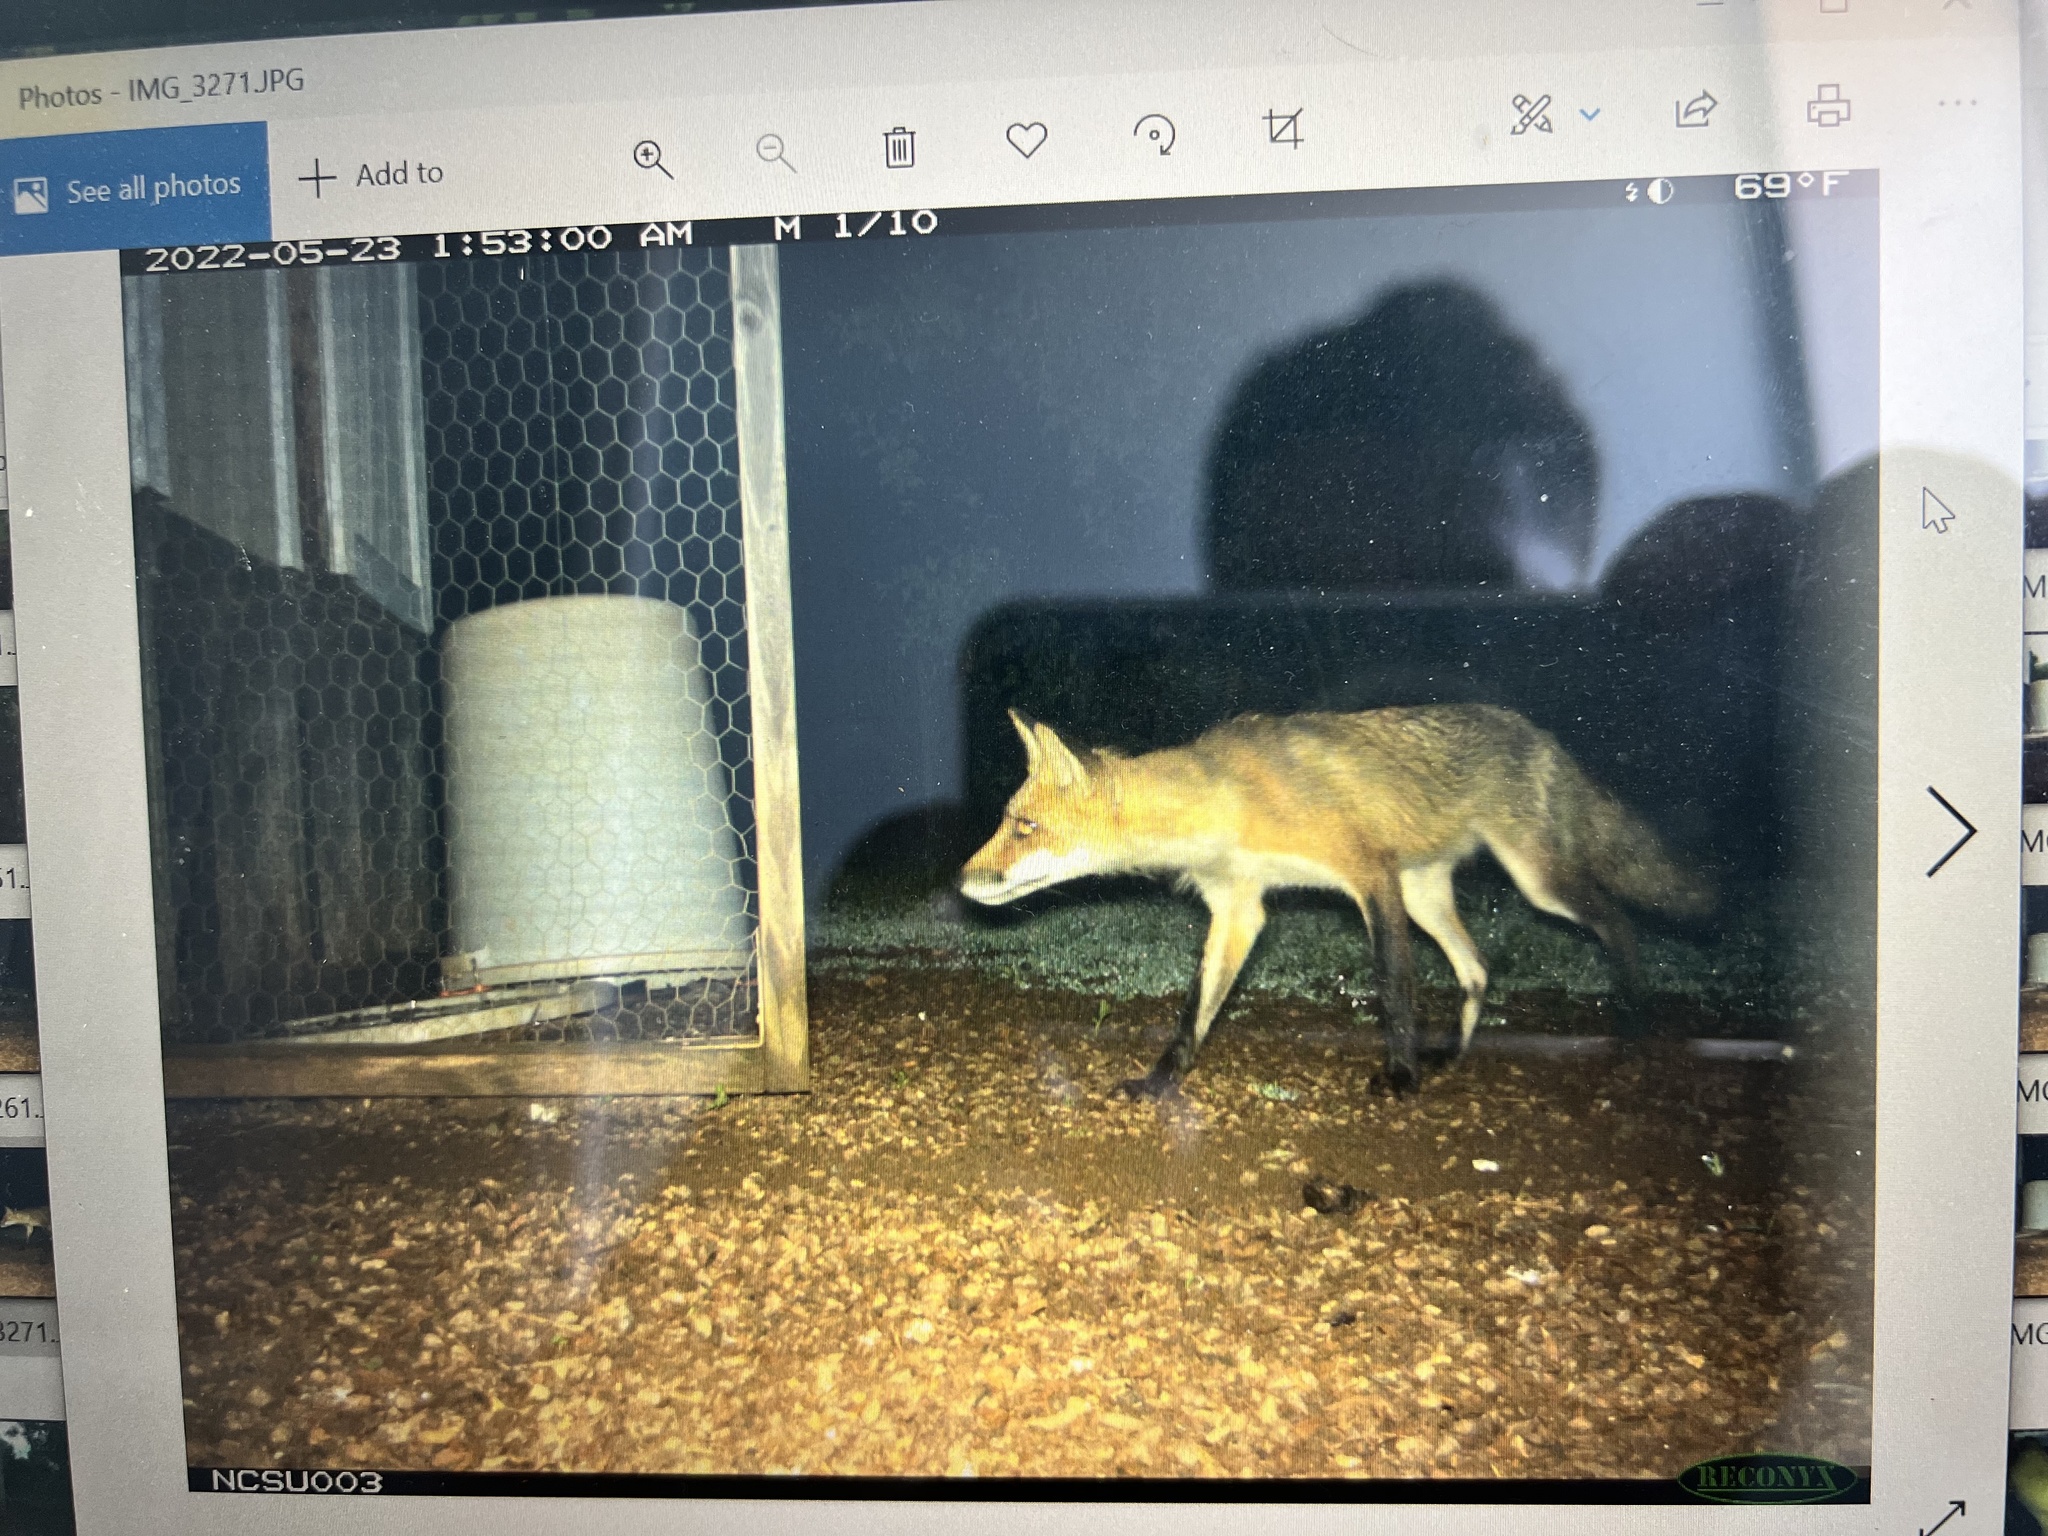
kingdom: Animalia
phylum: Chordata
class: Mammalia
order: Carnivora
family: Canidae
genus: Vulpes
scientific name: Vulpes vulpes
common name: Red fox
